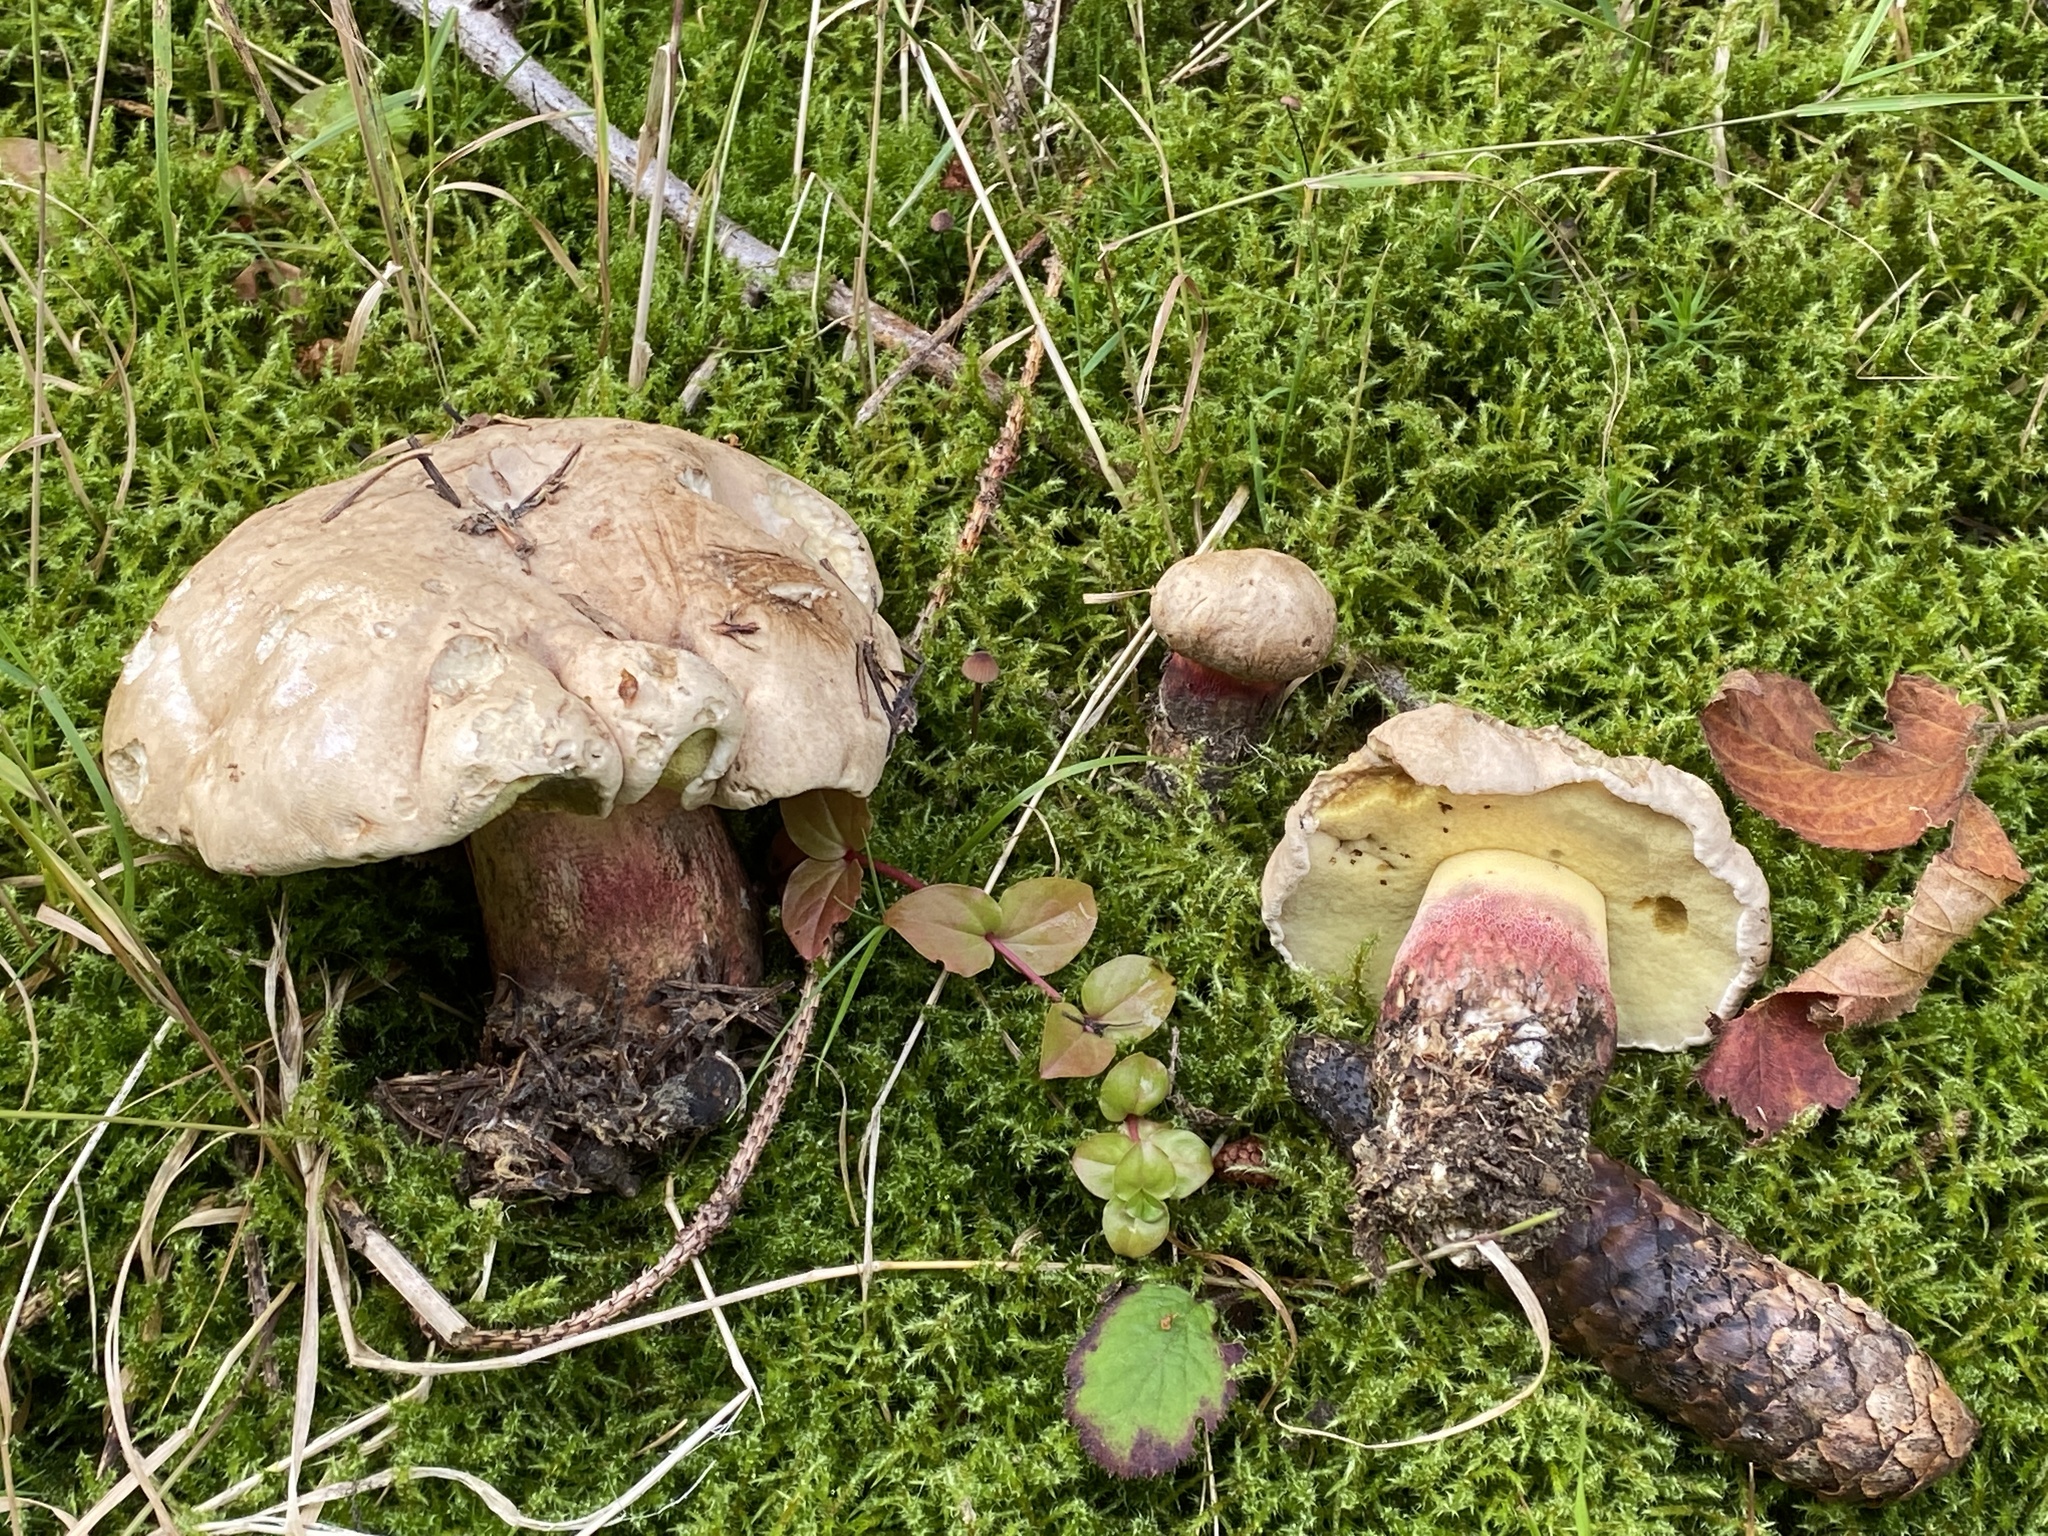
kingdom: Fungi
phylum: Basidiomycota
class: Agaricomycetes
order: Boletales
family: Boletaceae
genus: Caloboletus
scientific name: Caloboletus calopus
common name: Bitter beech bolete
